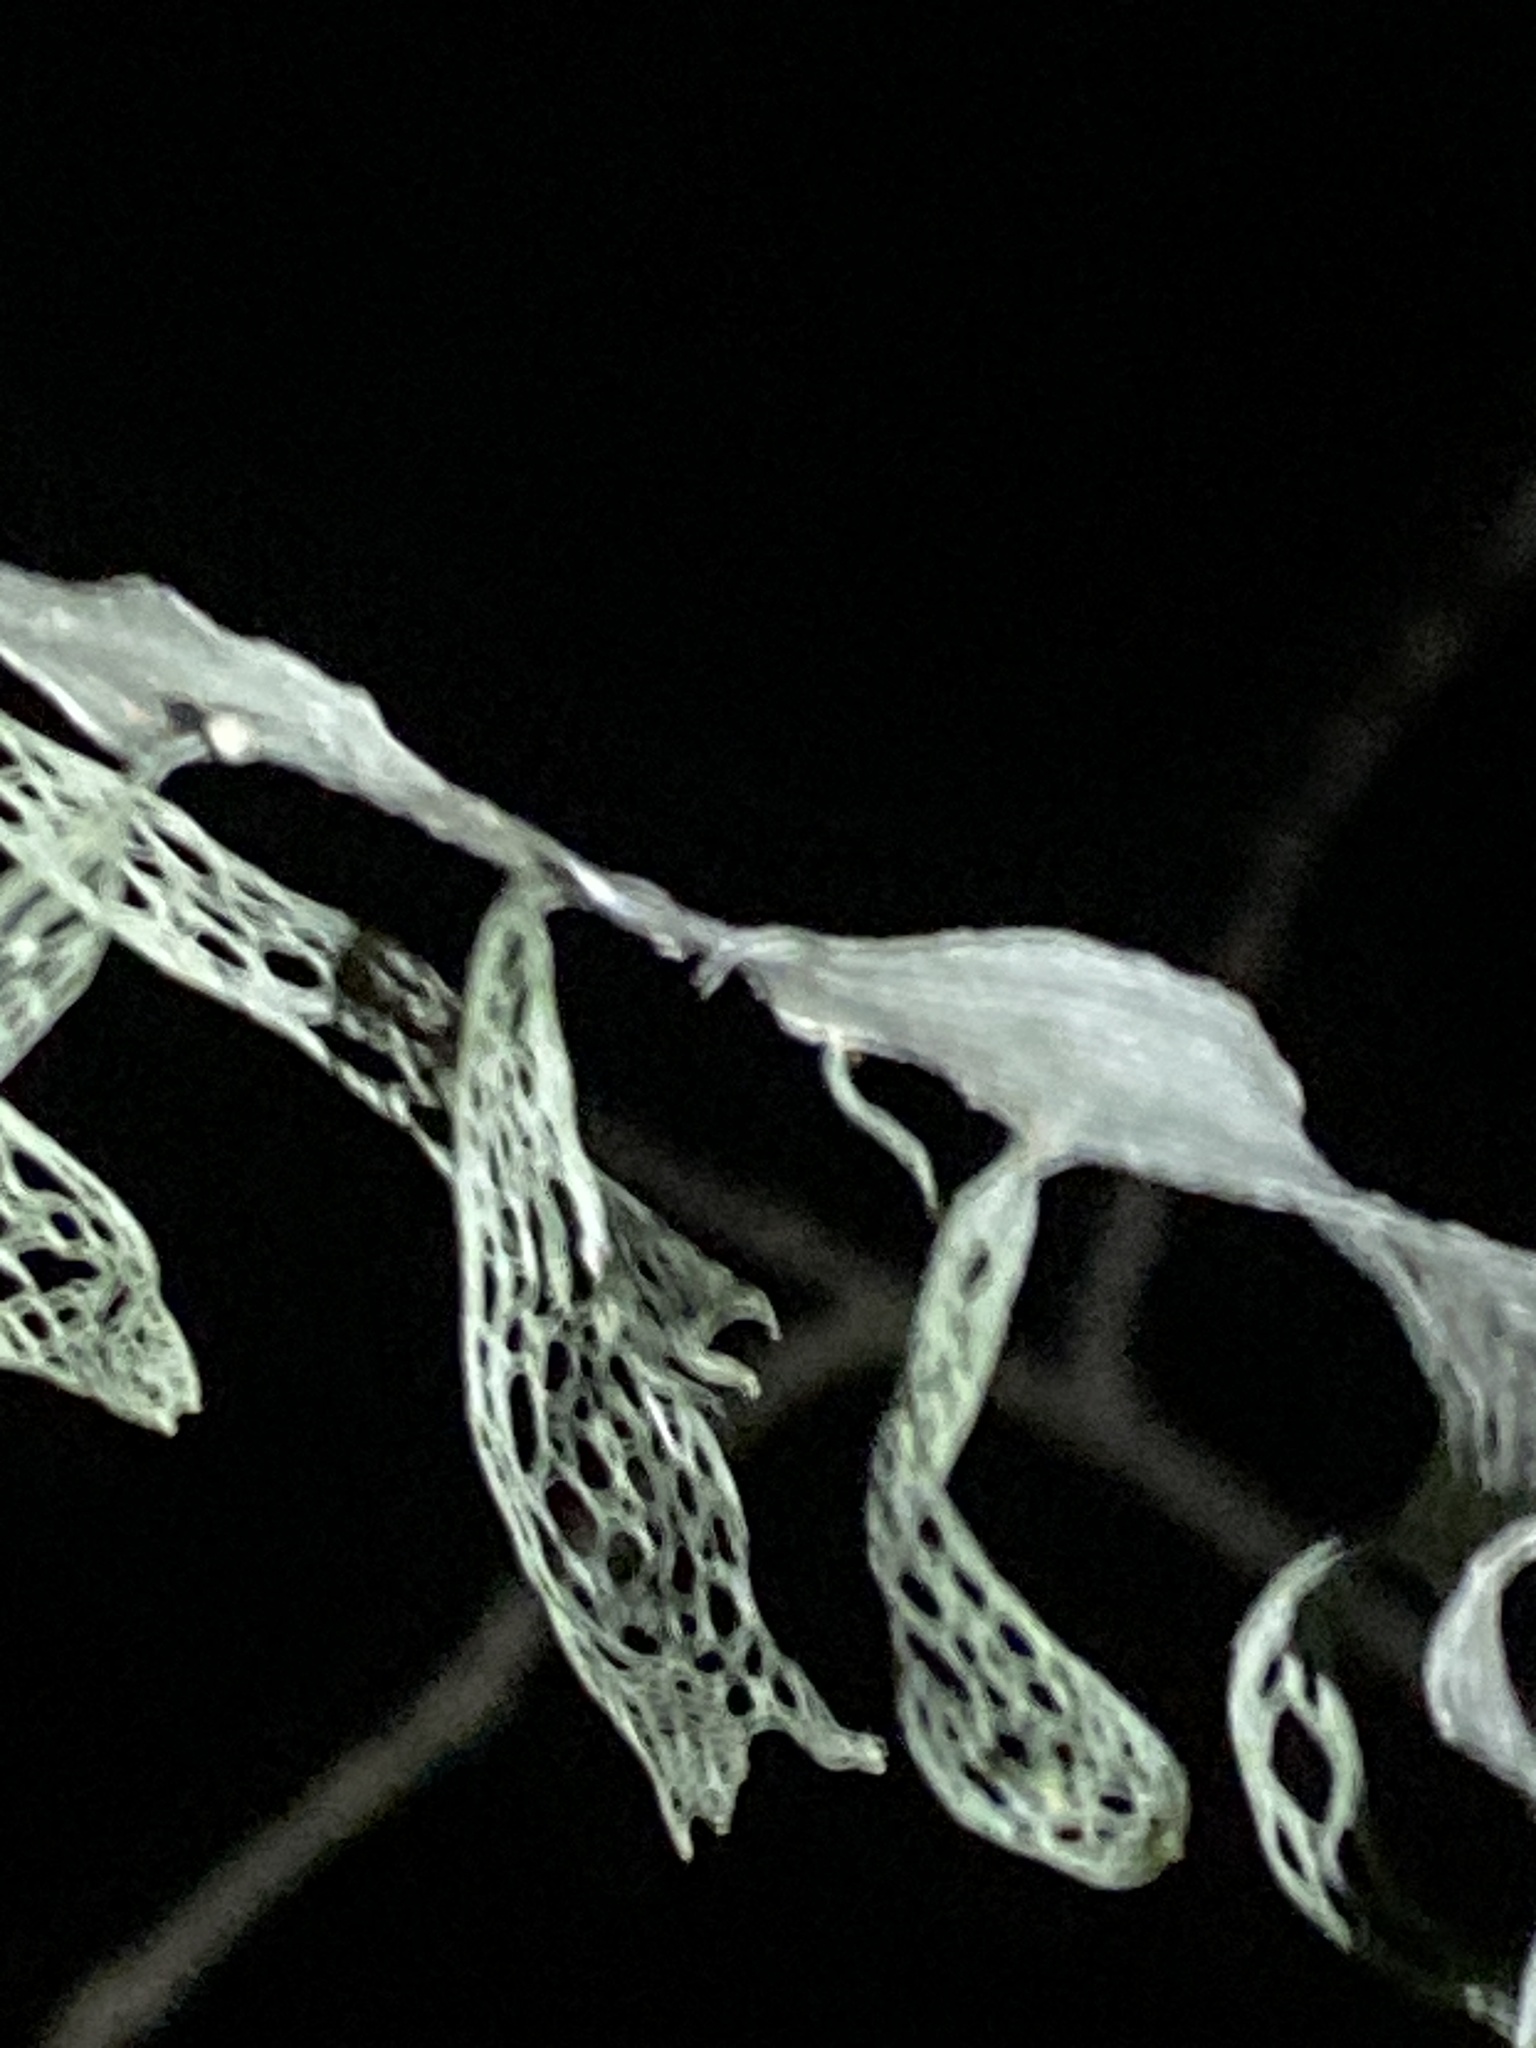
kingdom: Fungi
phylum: Ascomycota
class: Lecanoromycetes
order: Lecanorales
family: Ramalinaceae
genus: Ramalina
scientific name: Ramalina menziesii
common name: Lace lichen
